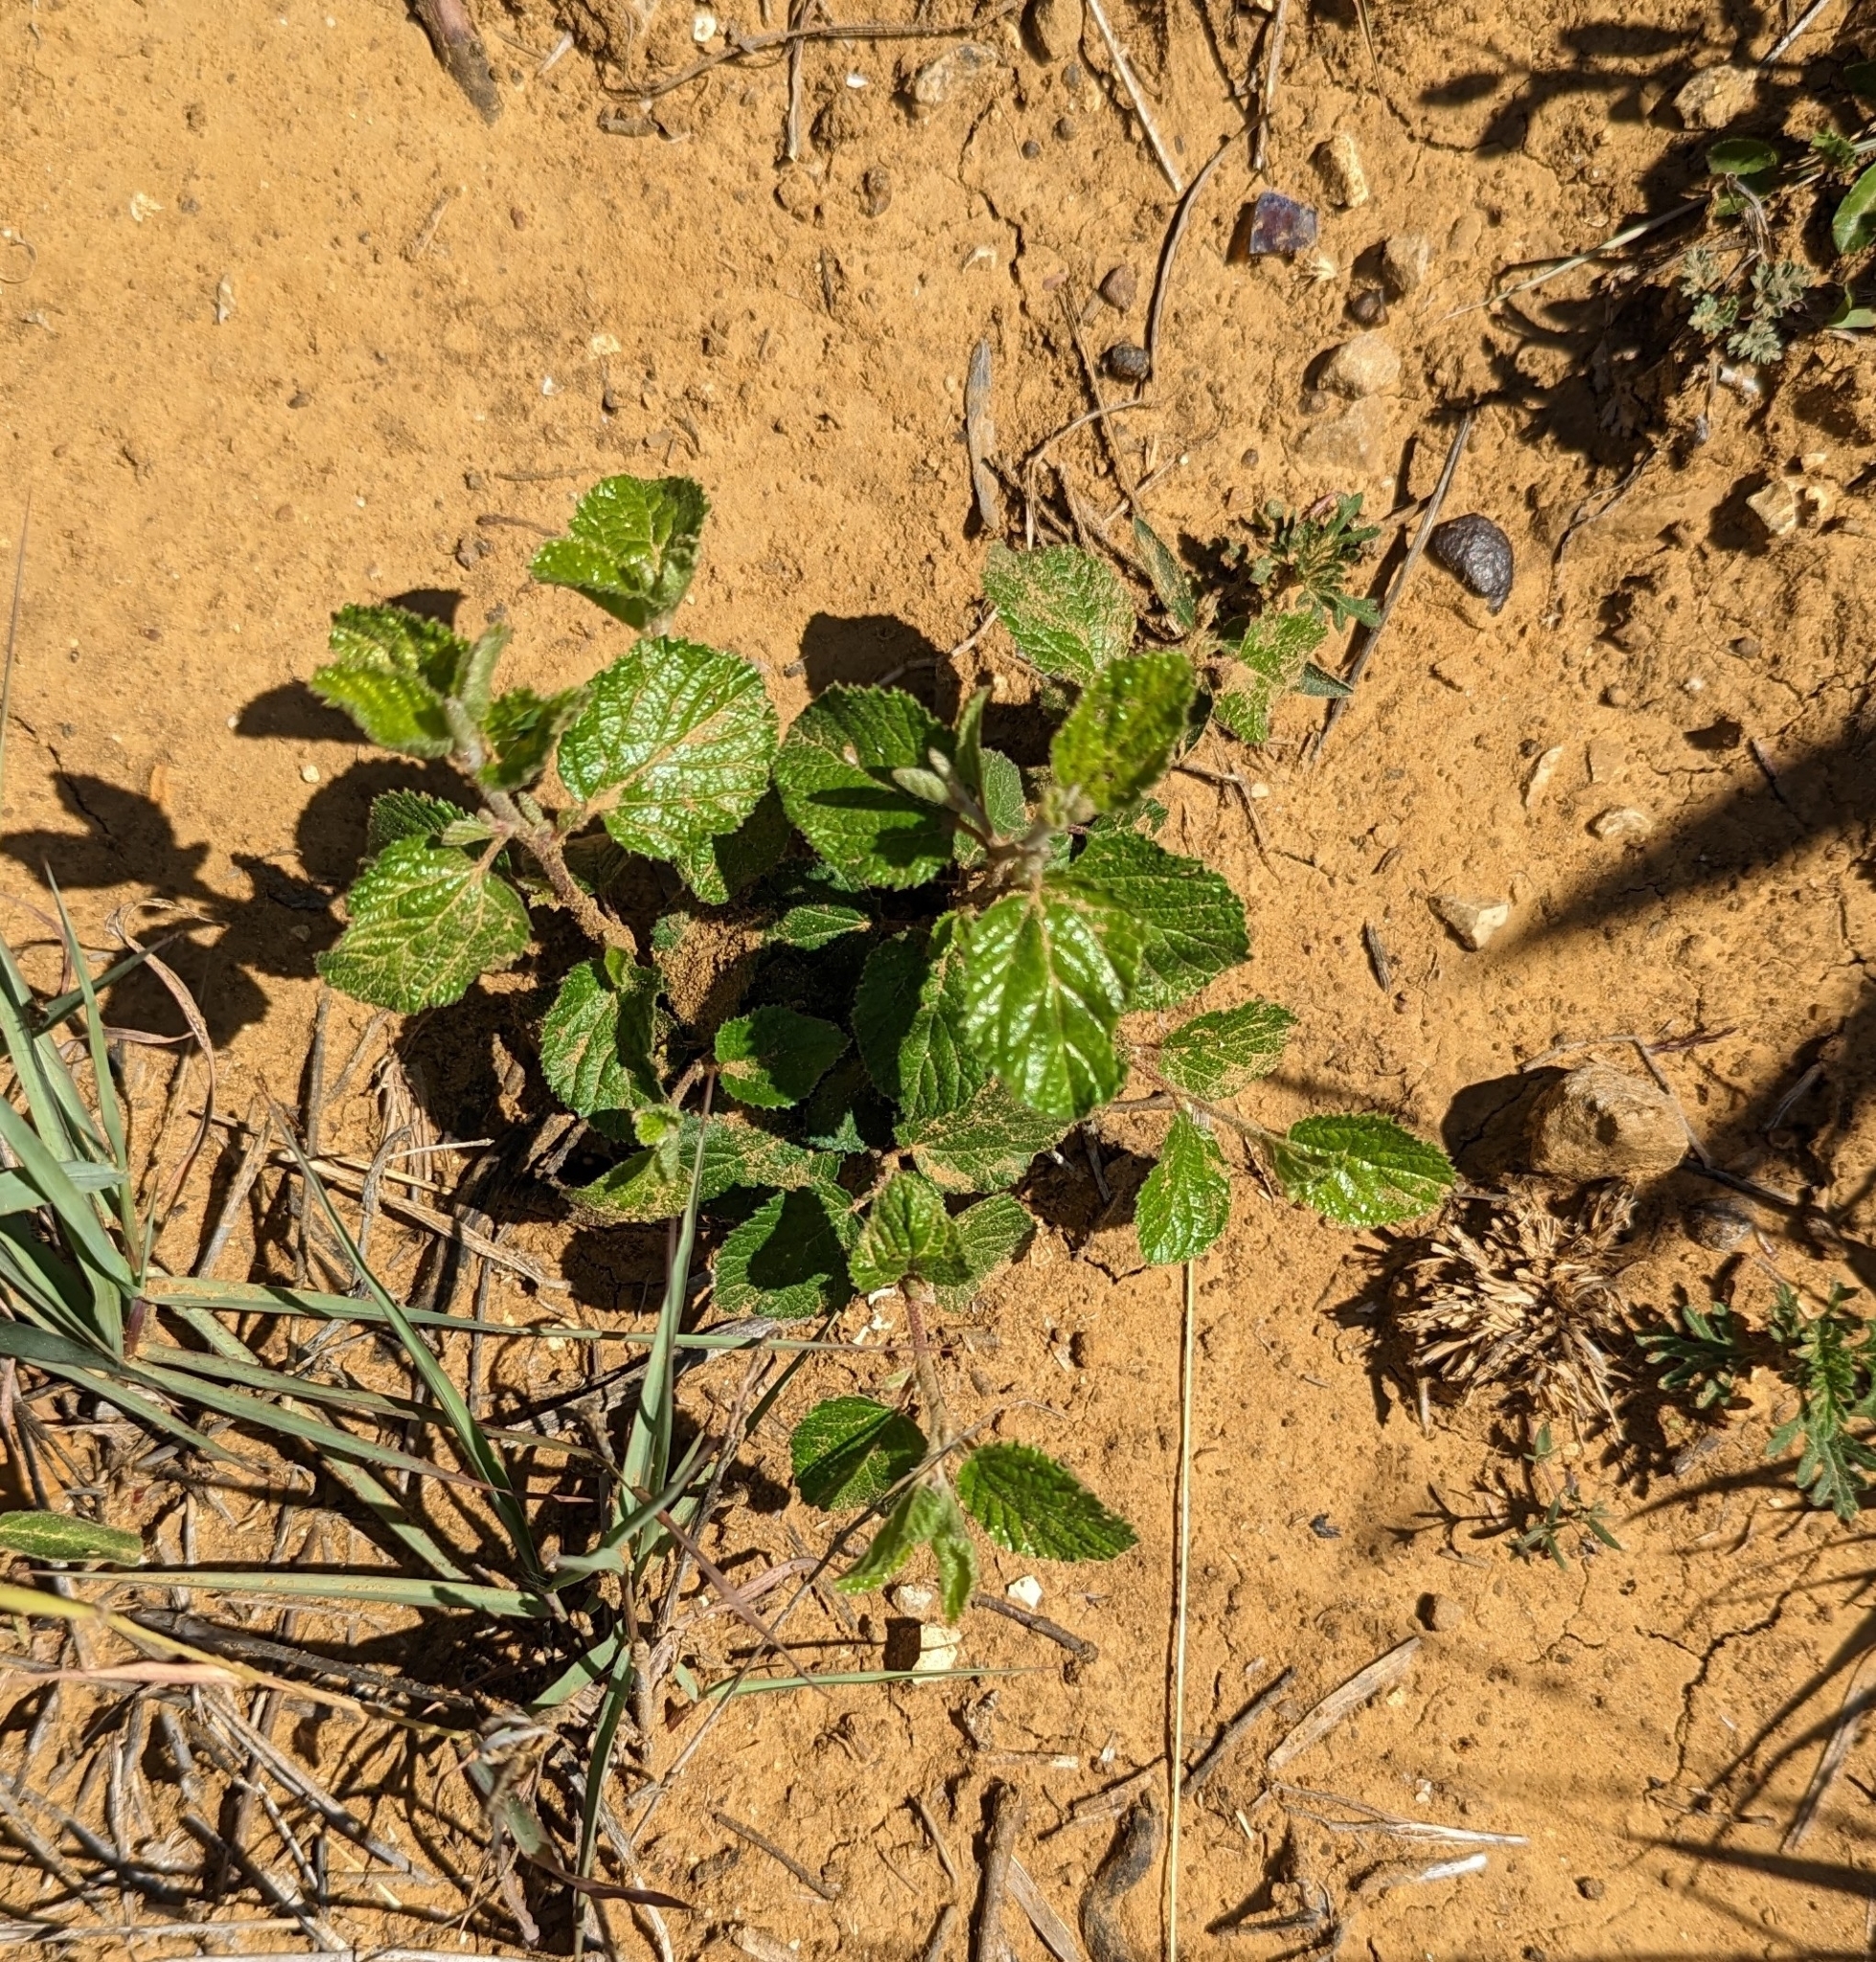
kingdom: Plantae
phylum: Tracheophyta
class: Magnoliopsida
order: Rosales
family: Rhamnaceae
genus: Colubrina
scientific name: Colubrina texensis
